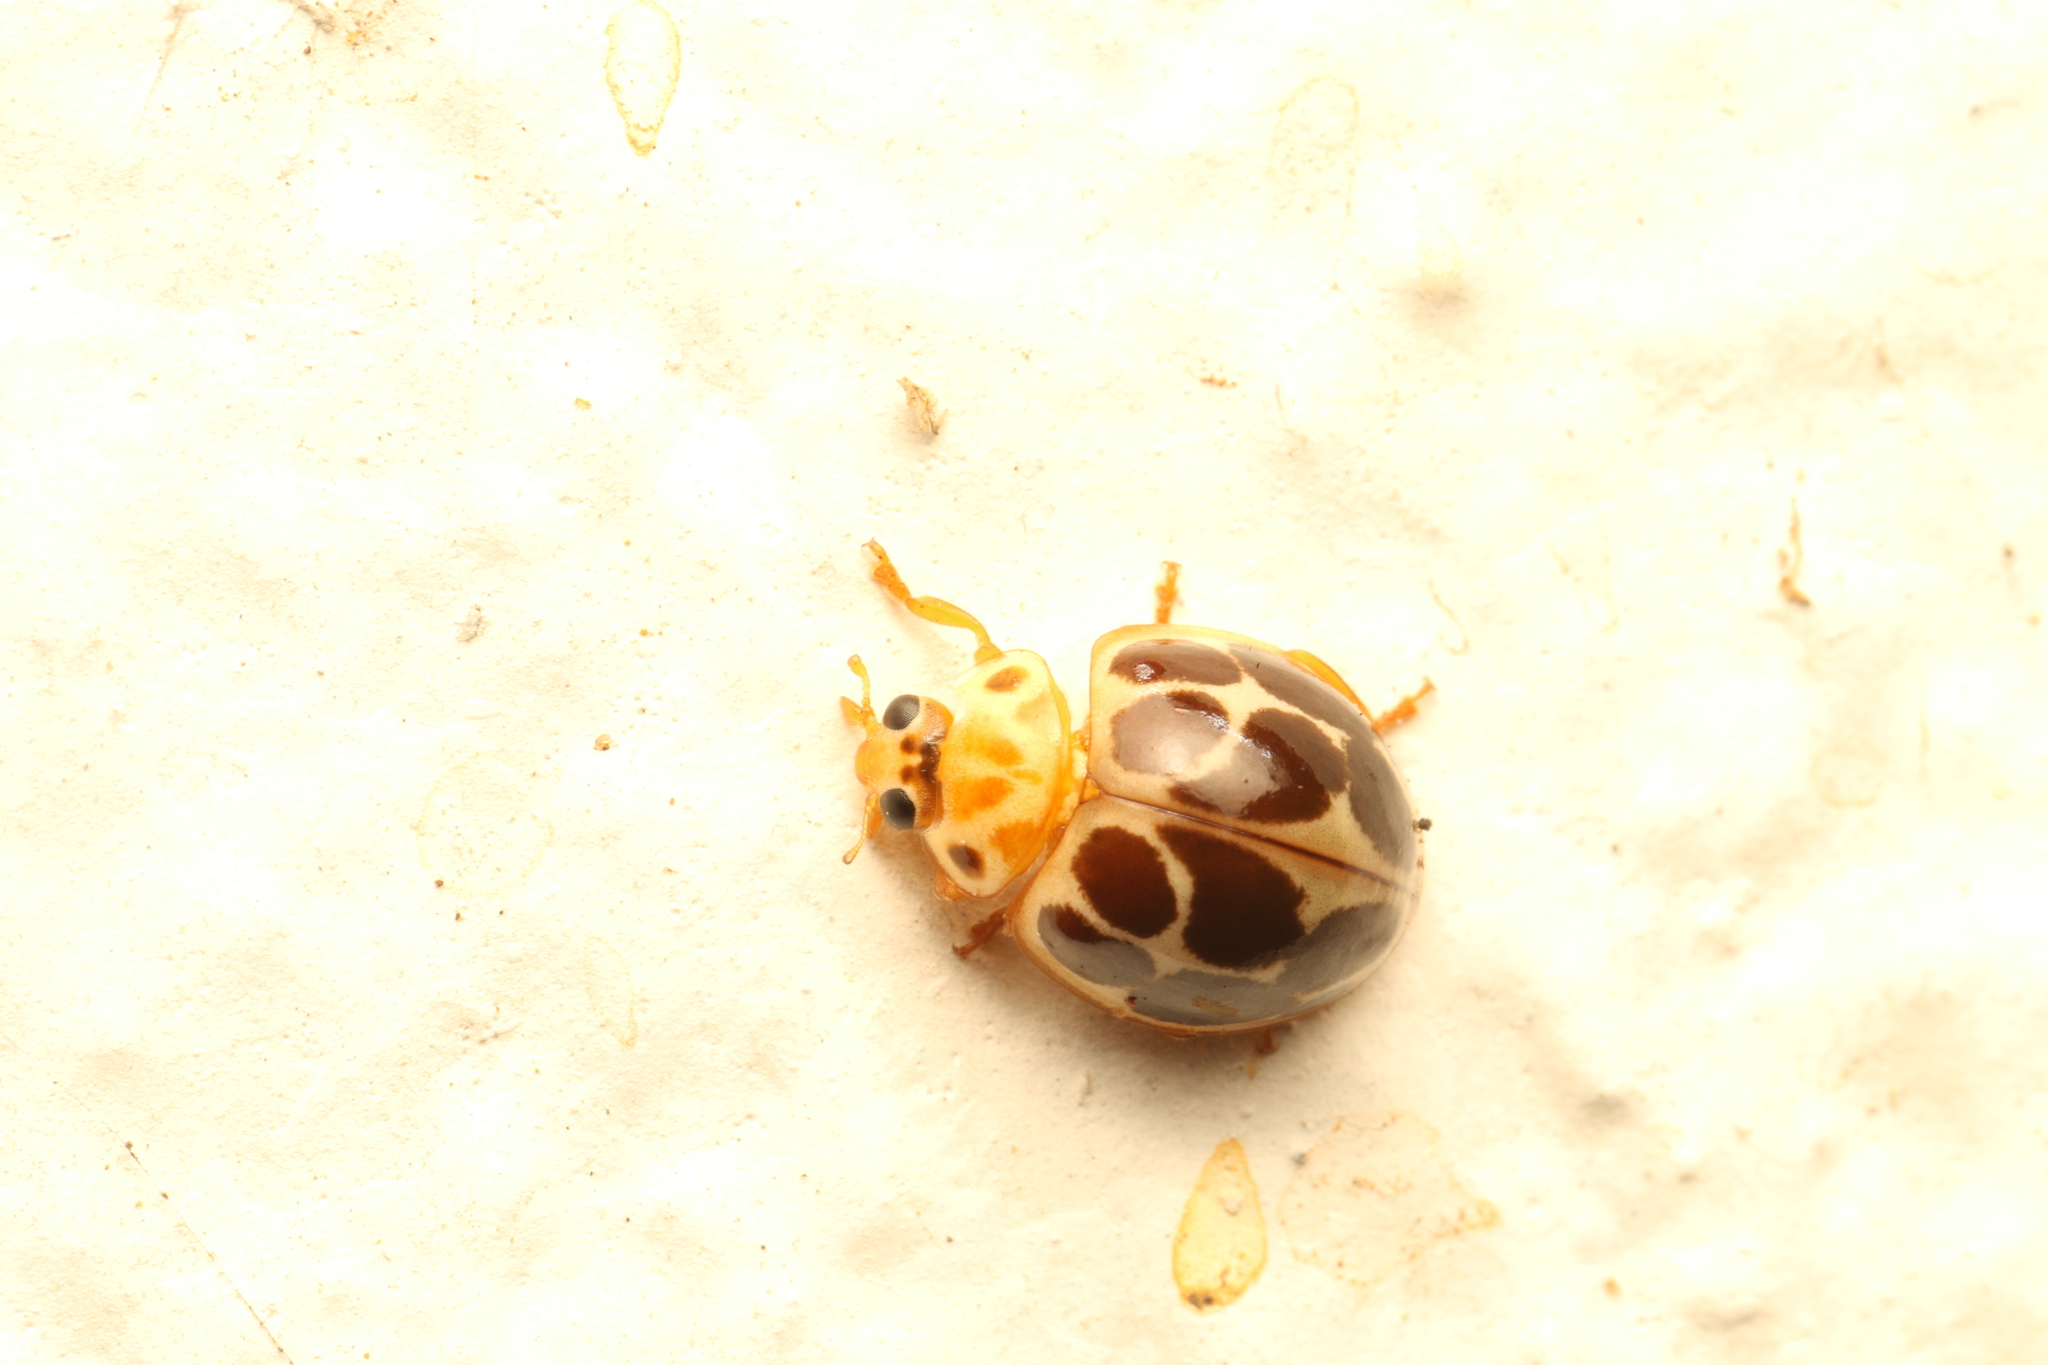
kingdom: Animalia
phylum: Arthropoda
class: Insecta
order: Coleoptera
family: Coccinellidae
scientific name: Coccinellidae
